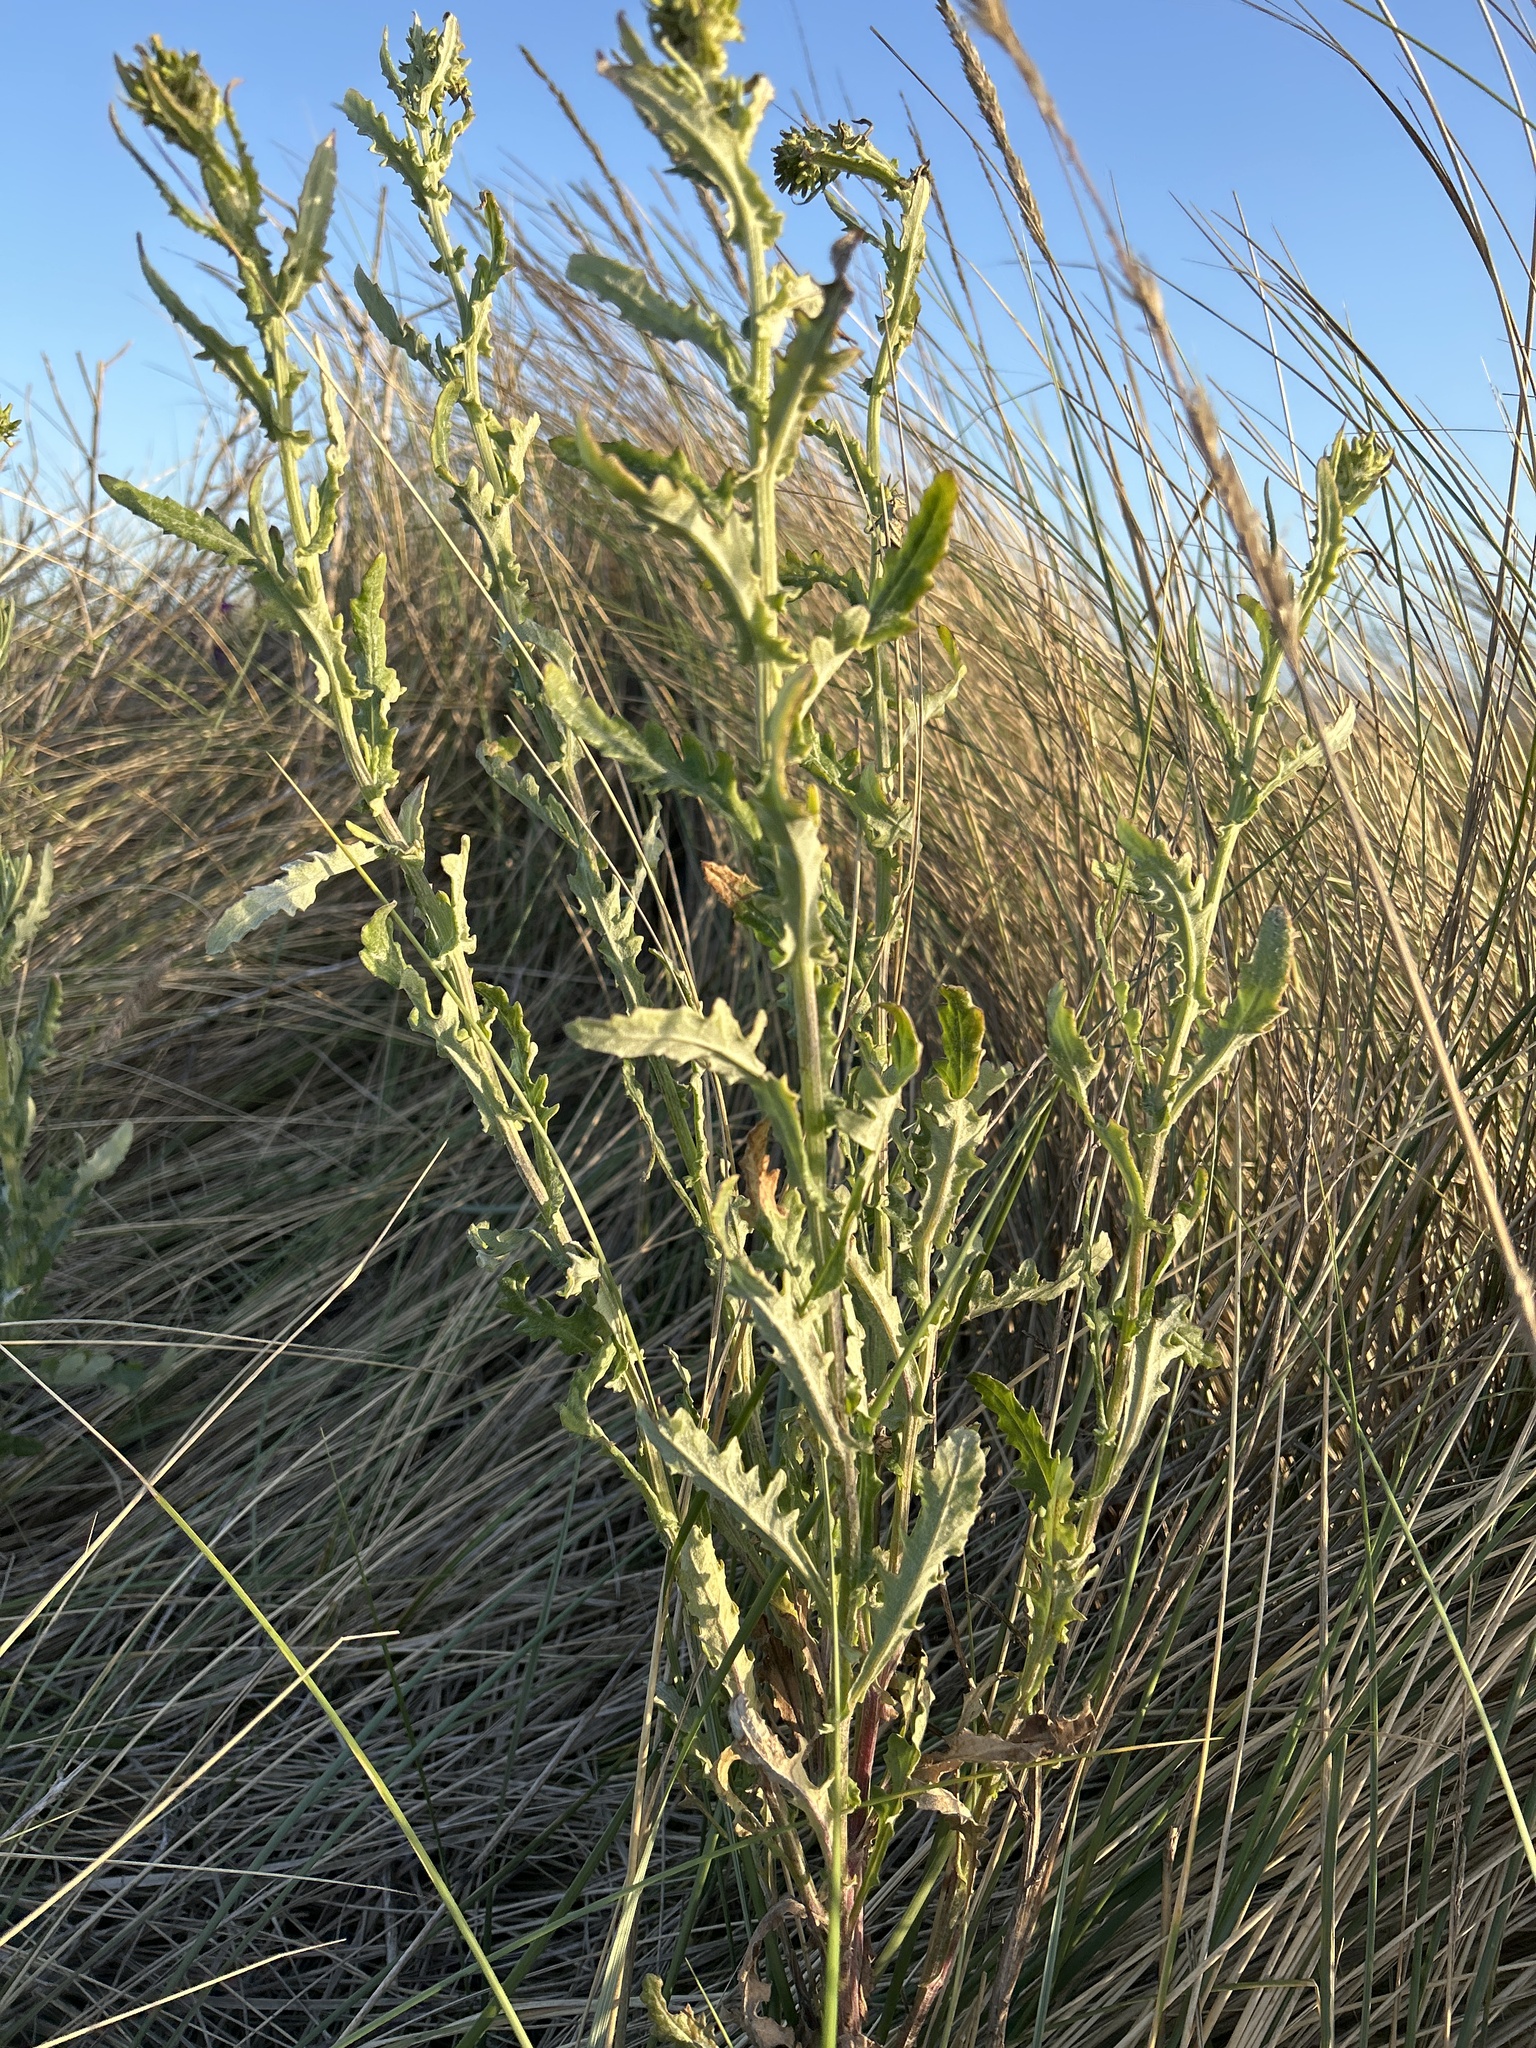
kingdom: Plantae
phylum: Tracheophyta
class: Magnoliopsida
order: Asterales
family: Asteraceae
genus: Senecio
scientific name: Senecio glomeratus
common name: Cutleaf burnweed
